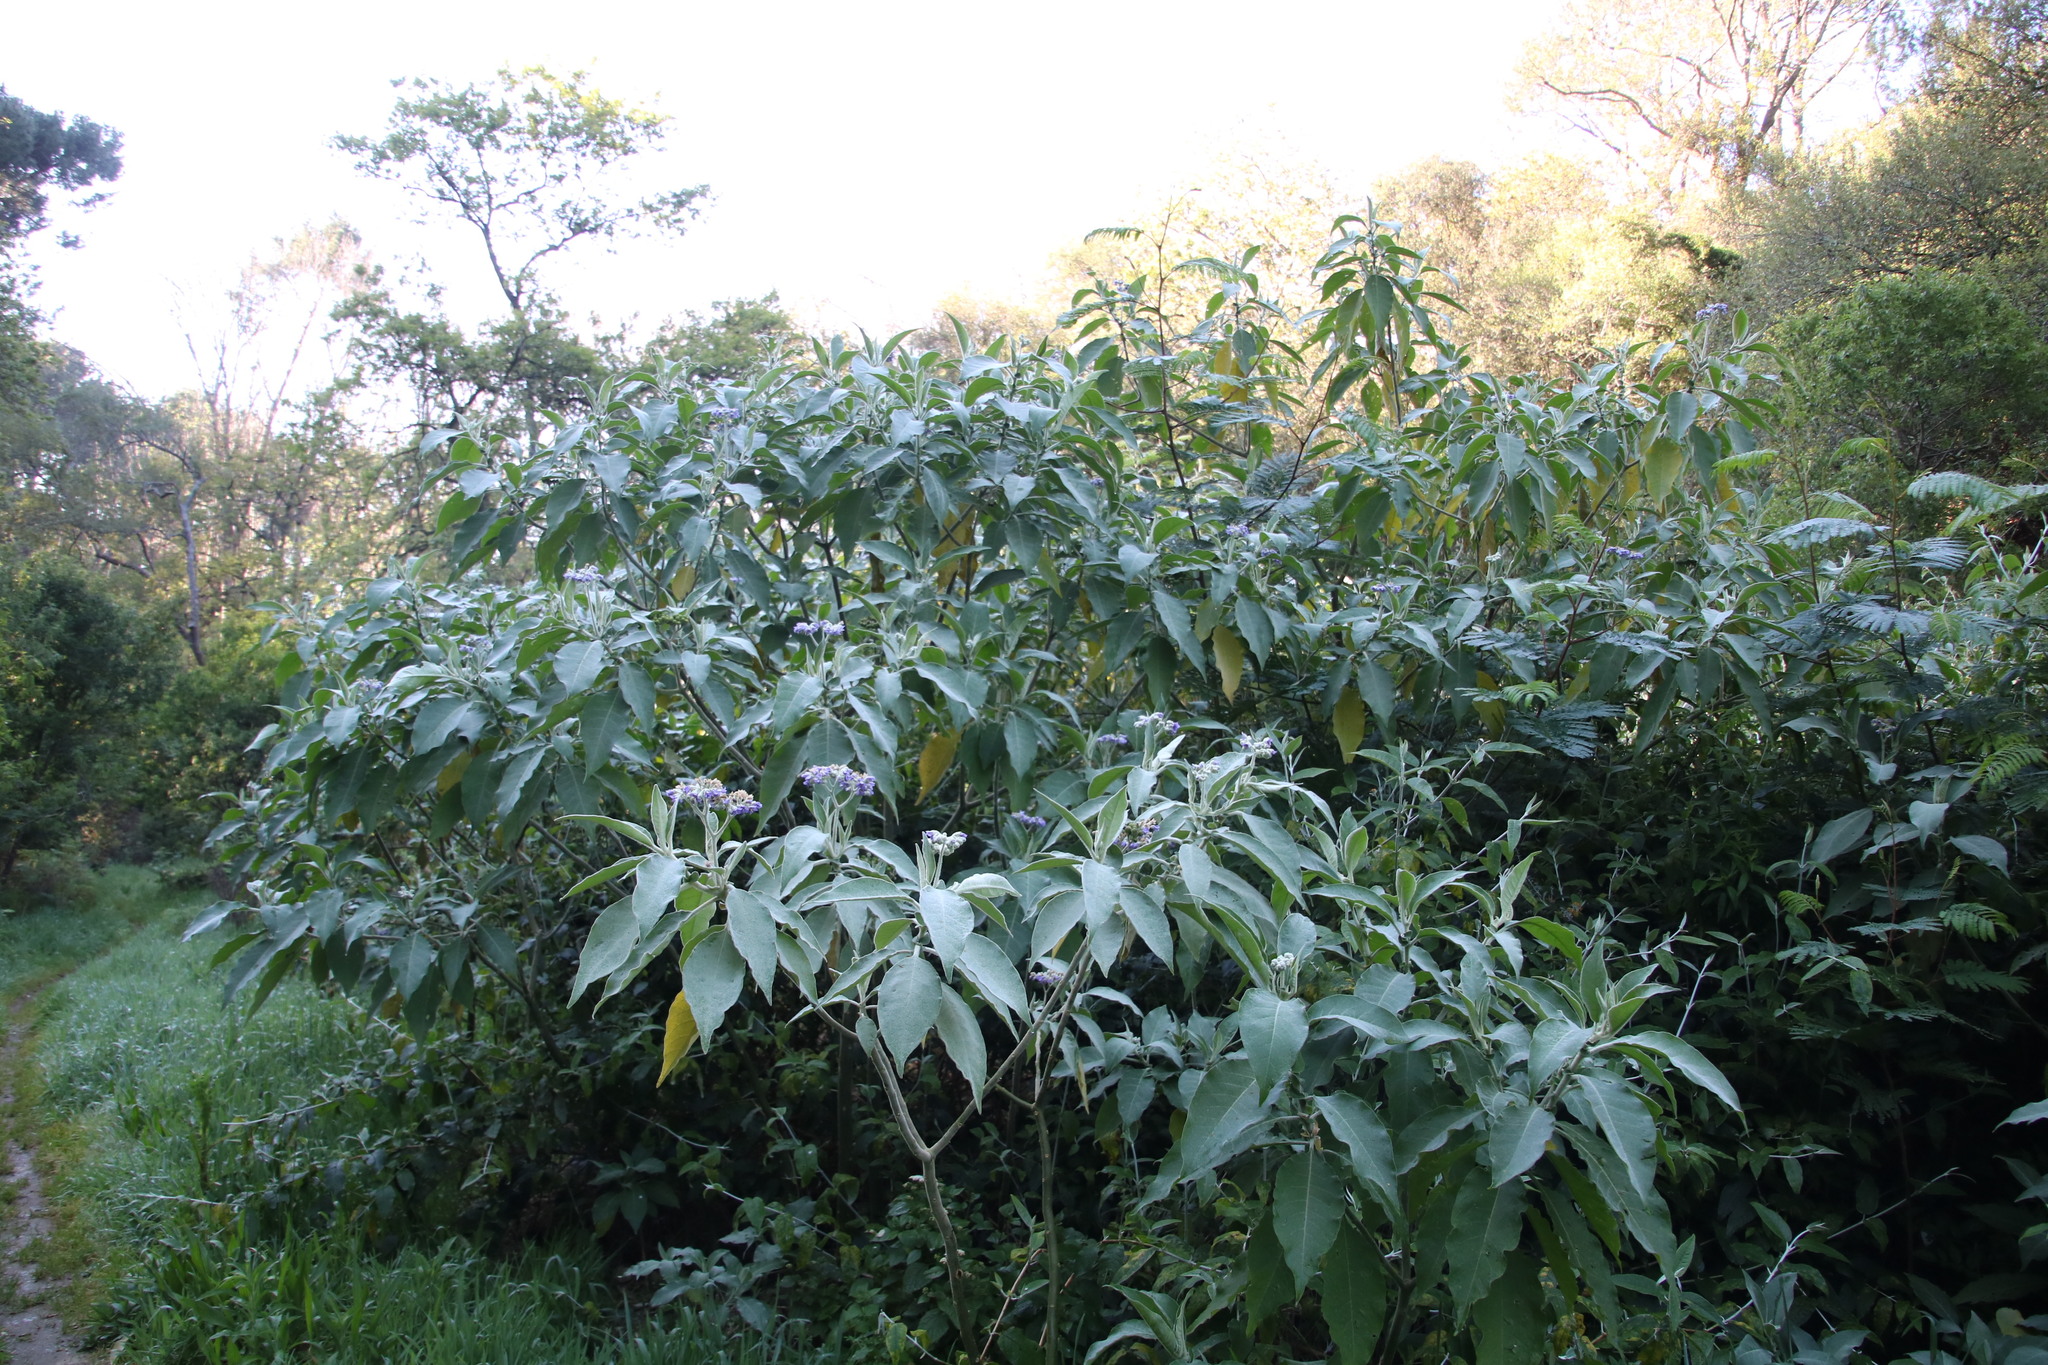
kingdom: Plantae
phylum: Tracheophyta
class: Magnoliopsida
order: Solanales
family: Solanaceae
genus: Solanum
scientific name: Solanum mauritianum
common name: Earleaf nightshade
